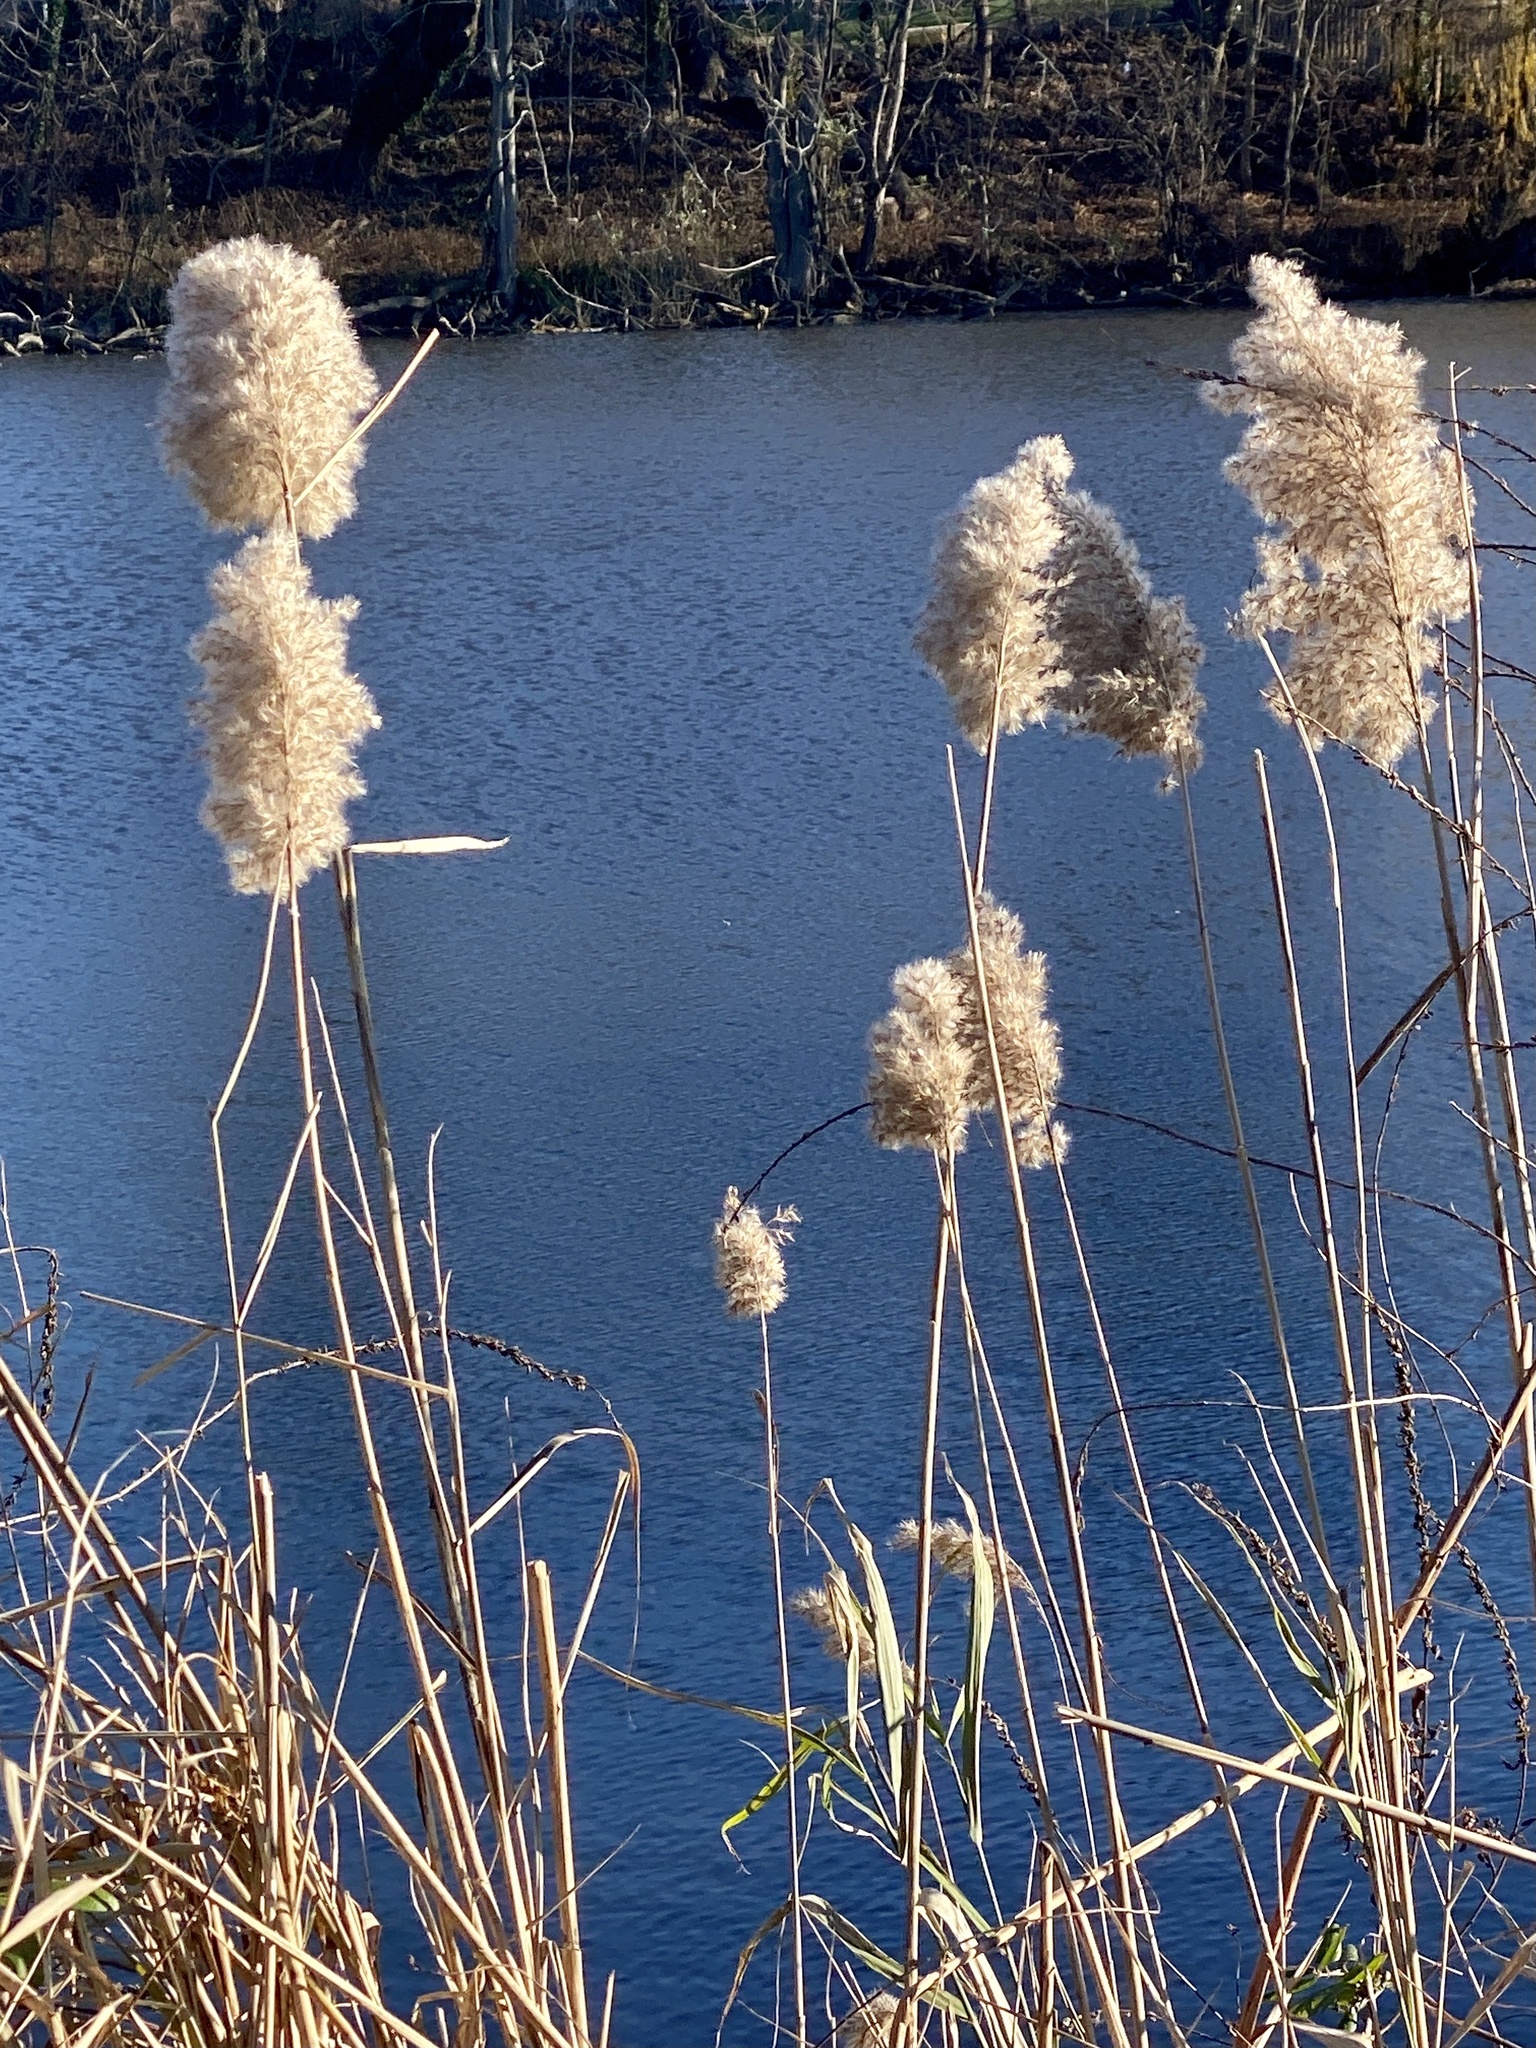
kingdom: Plantae
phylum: Tracheophyta
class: Liliopsida
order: Poales
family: Poaceae
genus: Phragmites
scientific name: Phragmites australis
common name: Common reed
